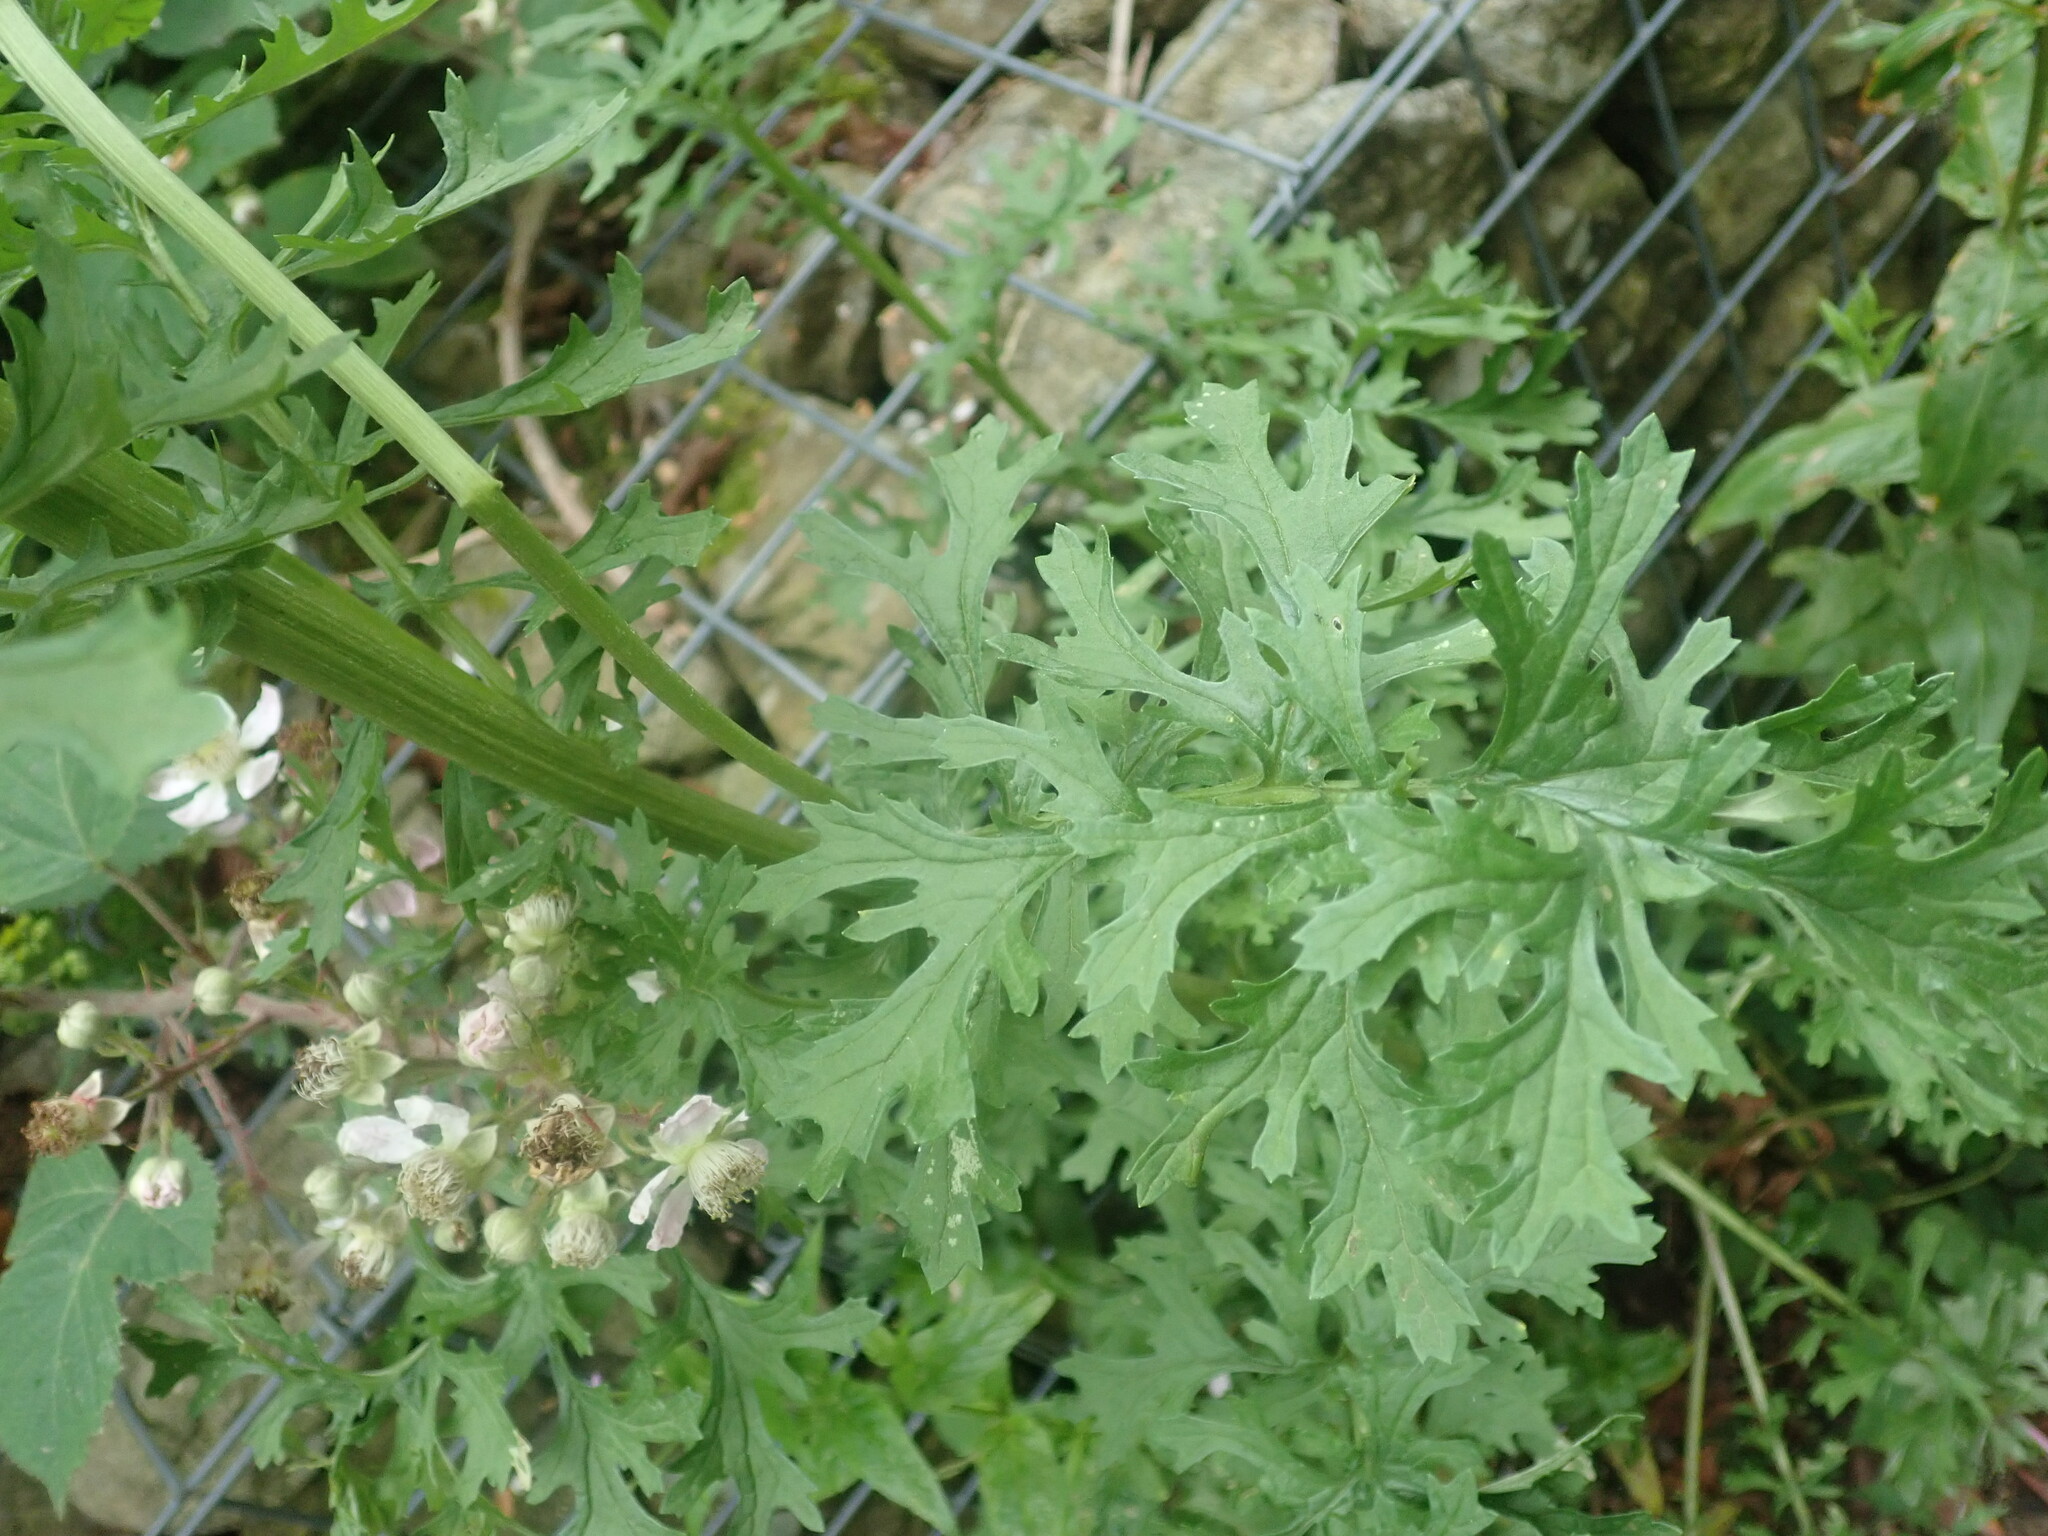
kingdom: Plantae
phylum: Tracheophyta
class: Magnoliopsida
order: Asterales
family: Asteraceae
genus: Jacobaea
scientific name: Jacobaea vulgaris
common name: Stinking willie
